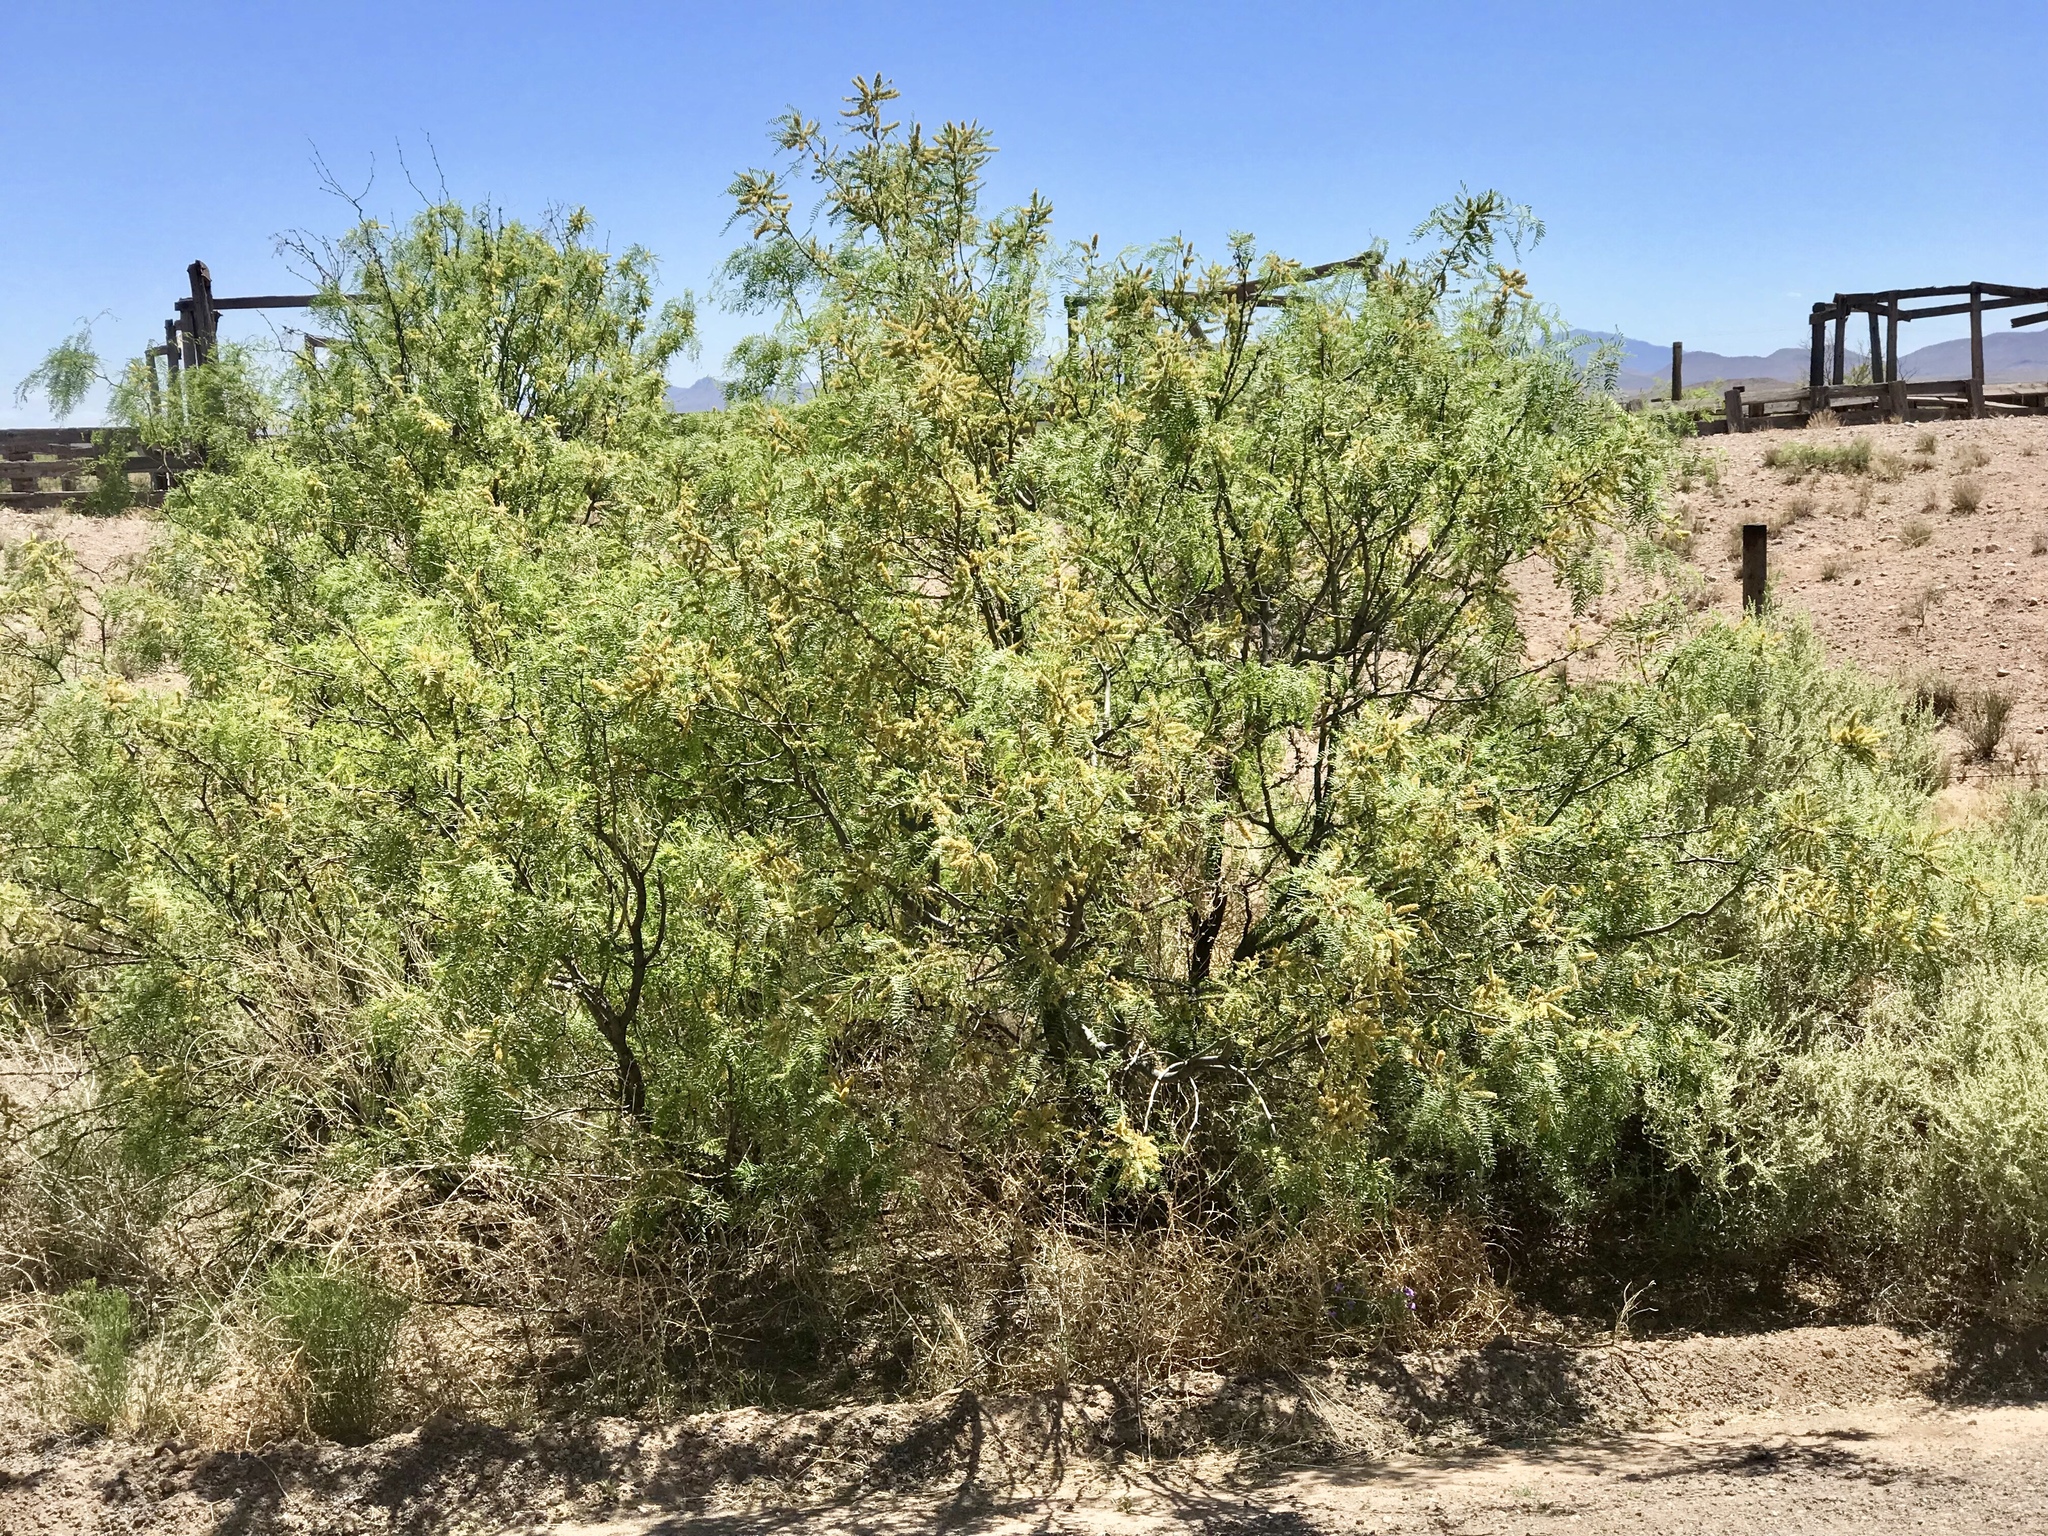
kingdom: Plantae
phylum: Tracheophyta
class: Magnoliopsida
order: Fabales
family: Fabaceae
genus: Prosopis
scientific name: Prosopis glandulosa
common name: Honey mesquite
